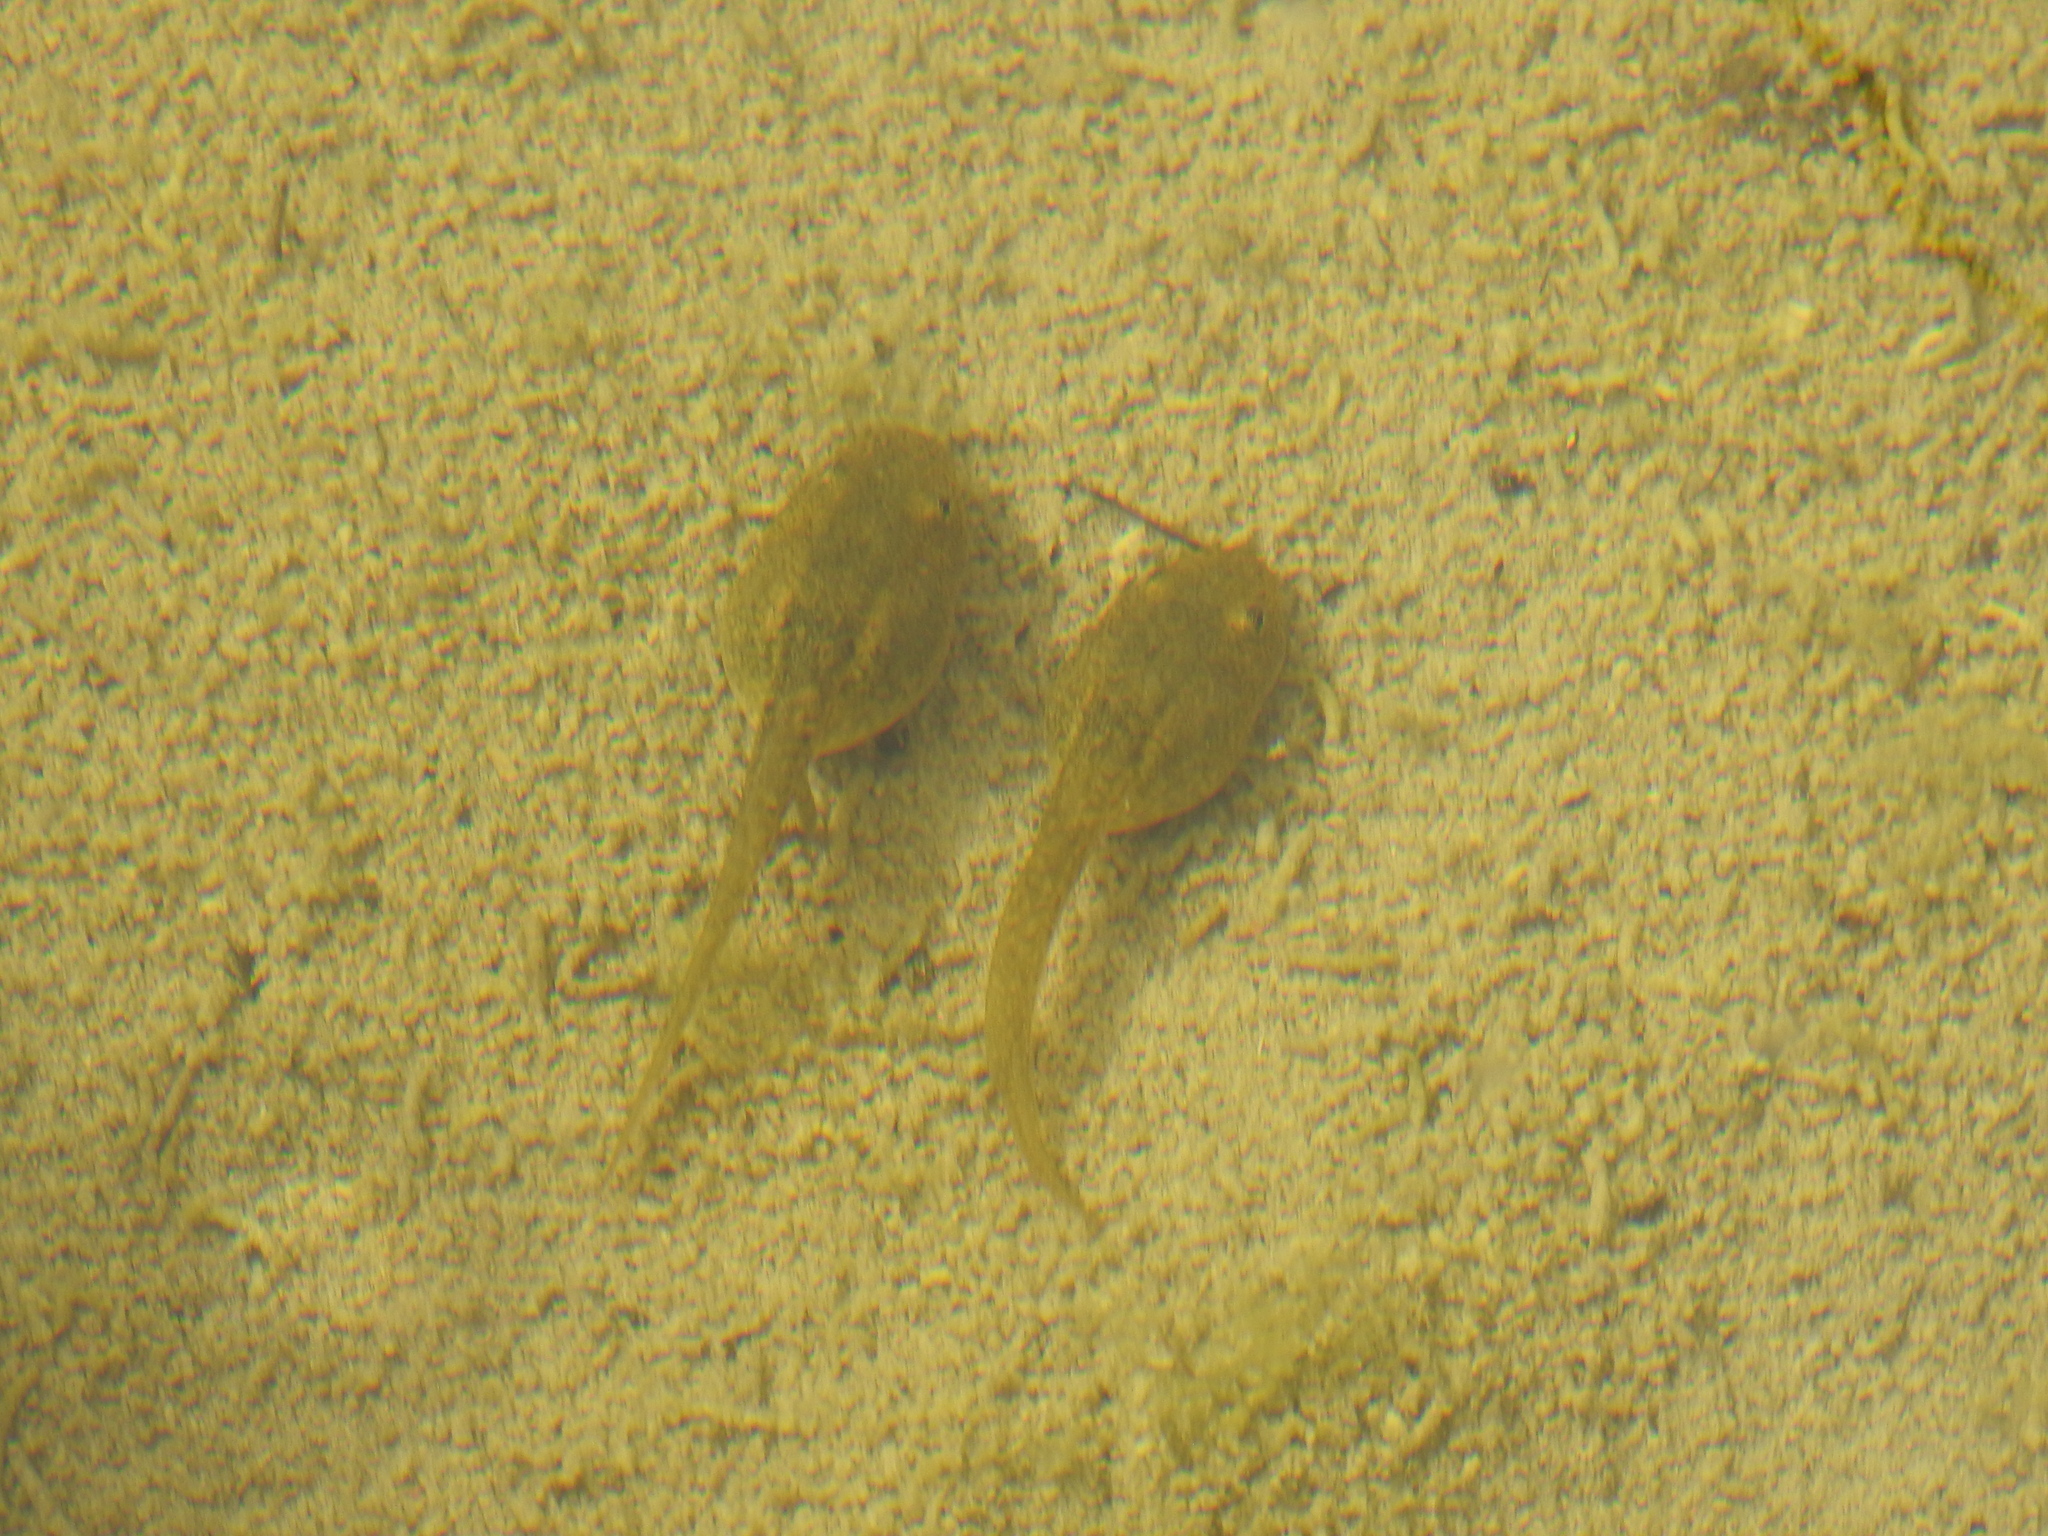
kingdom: Animalia
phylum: Chordata
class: Amphibia
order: Anura
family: Ranidae
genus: Lithobates
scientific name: Lithobates yavapaiensis
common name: Lowland leopard frog
